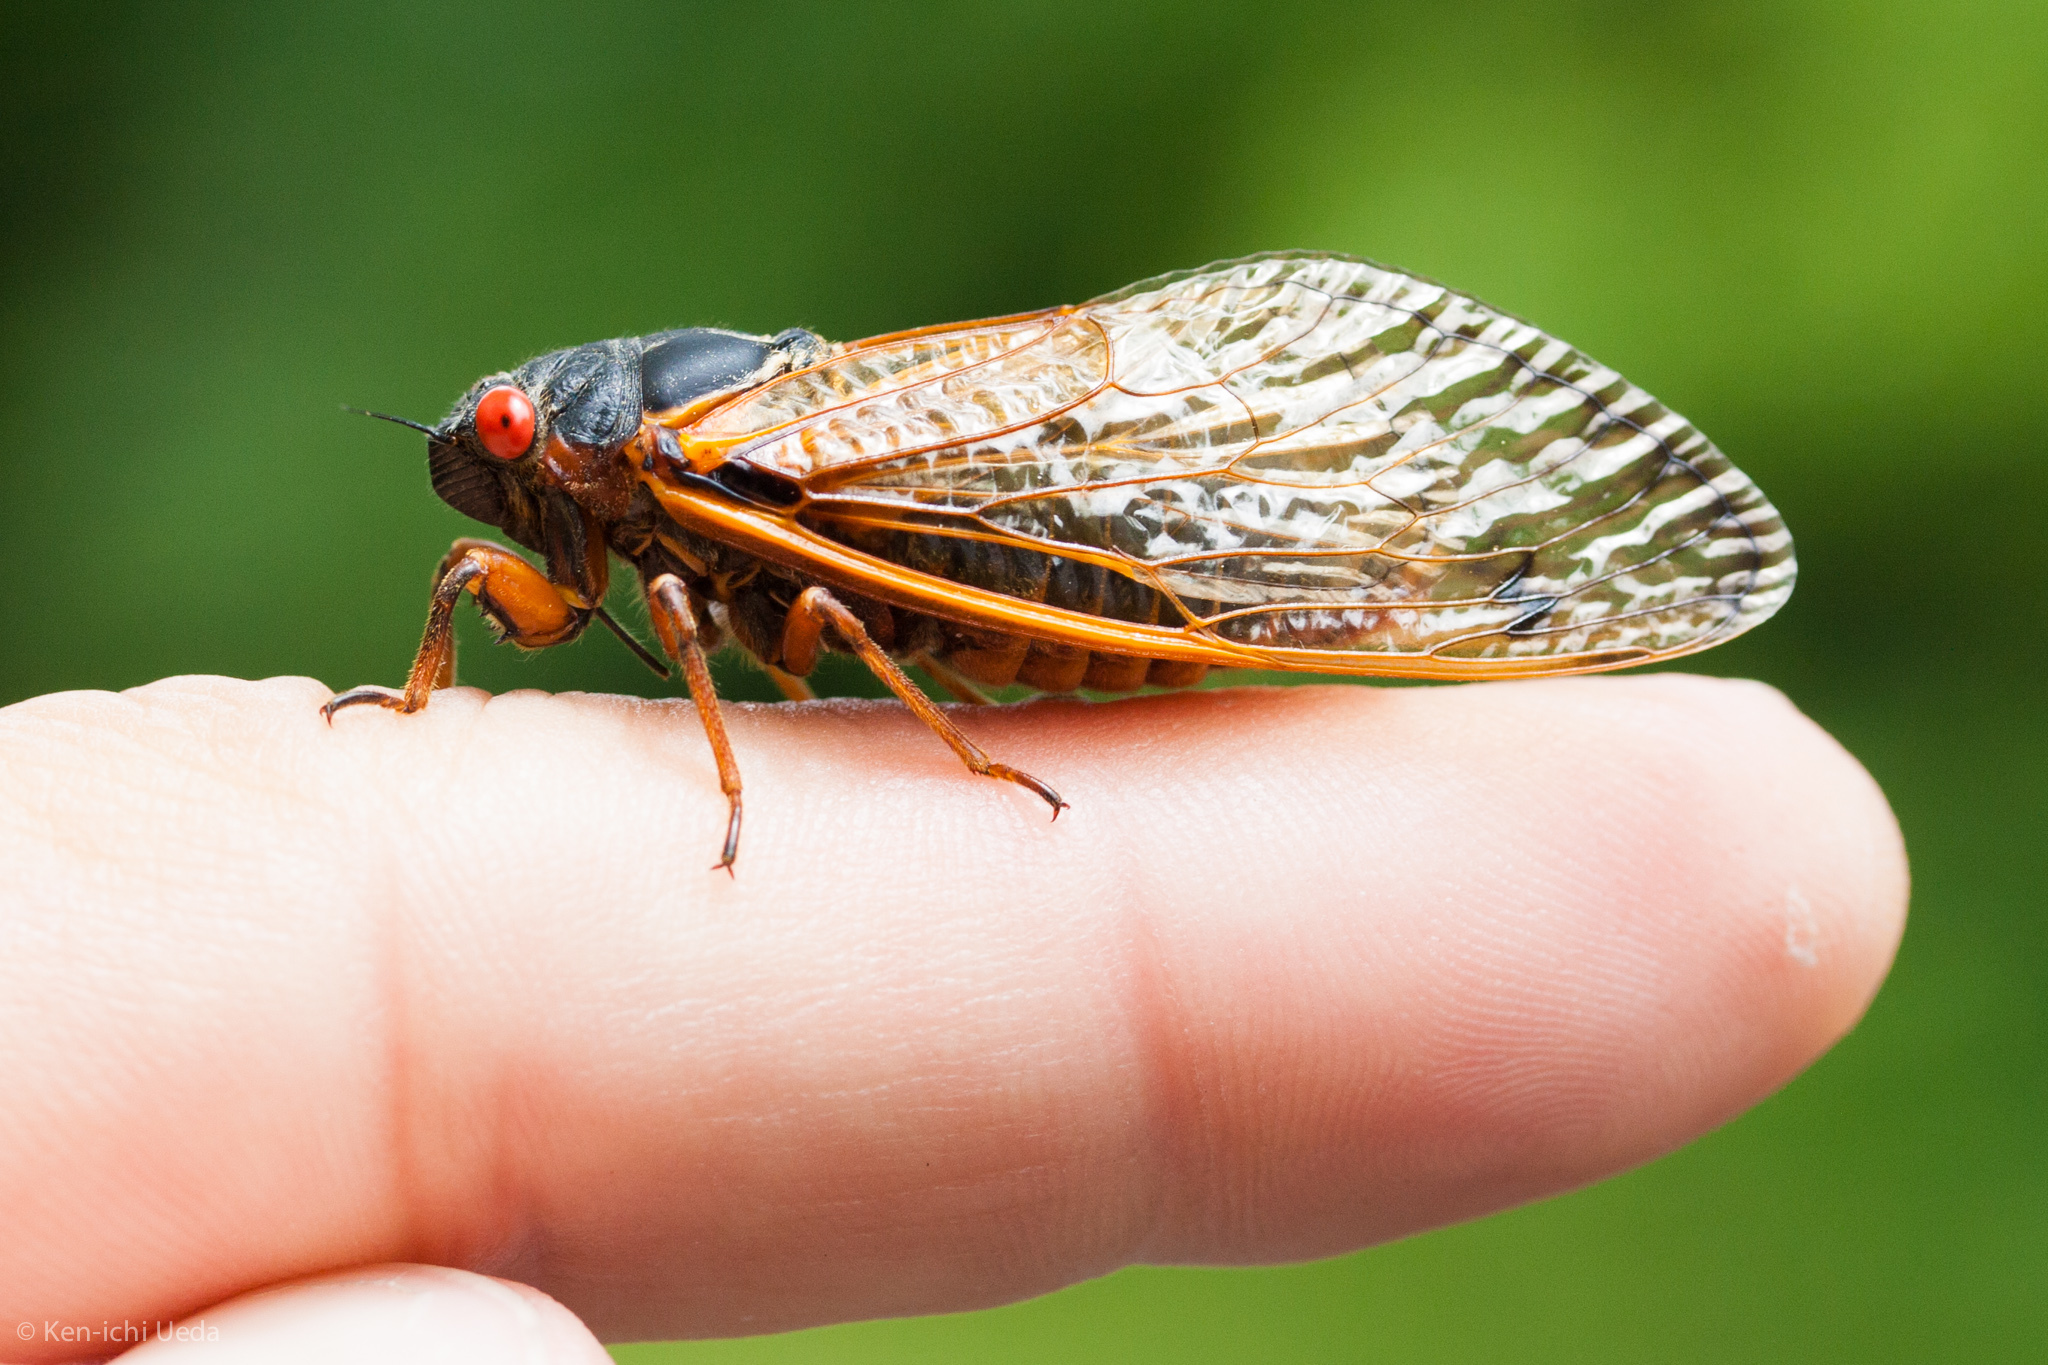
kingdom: Animalia
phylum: Arthropoda
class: Insecta
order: Hemiptera
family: Cicadidae
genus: Magicicada
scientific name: Magicicada septendecim
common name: Periodical cicada
